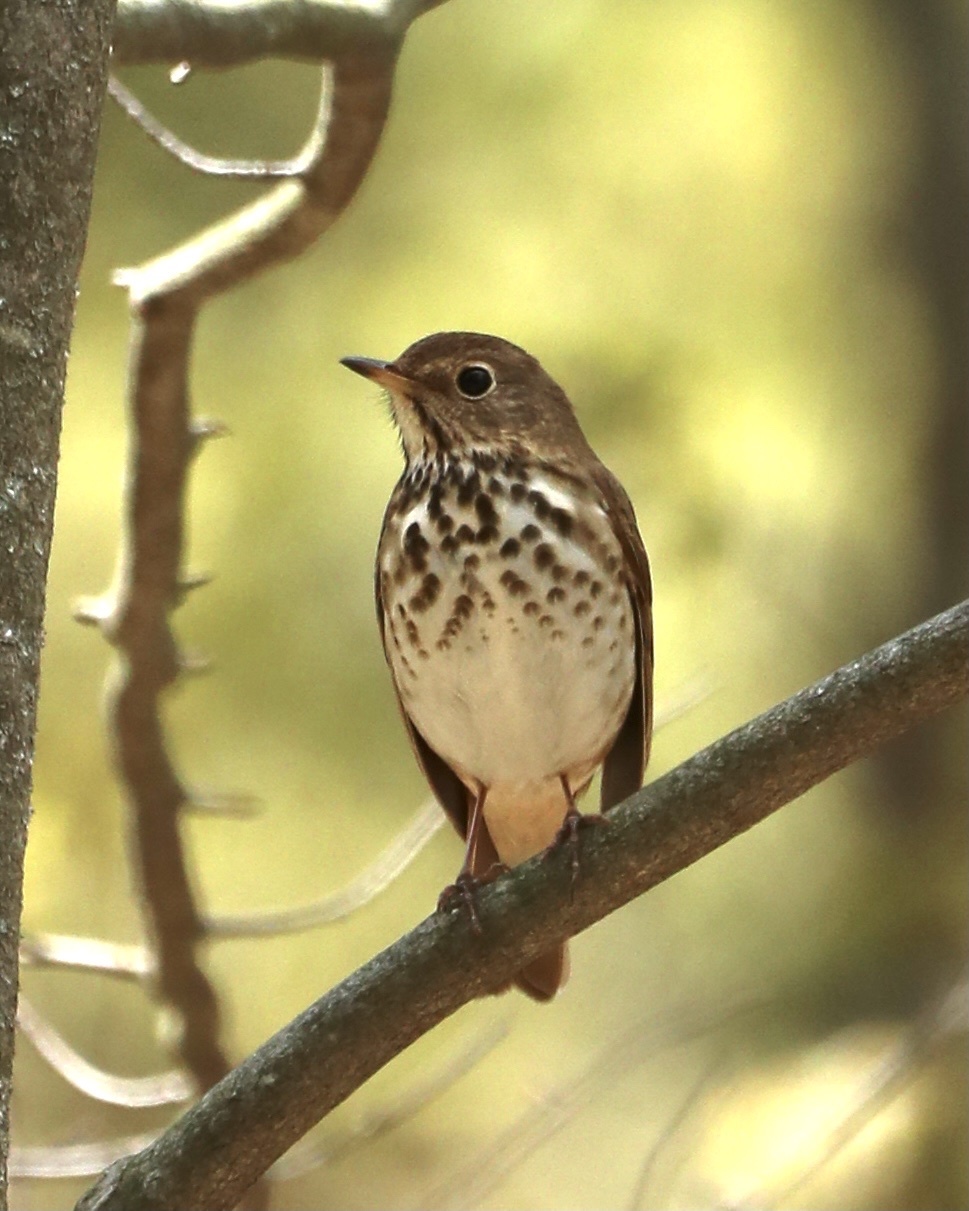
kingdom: Animalia
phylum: Chordata
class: Aves
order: Passeriformes
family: Turdidae
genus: Catharus
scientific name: Catharus guttatus
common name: Hermit thrush
